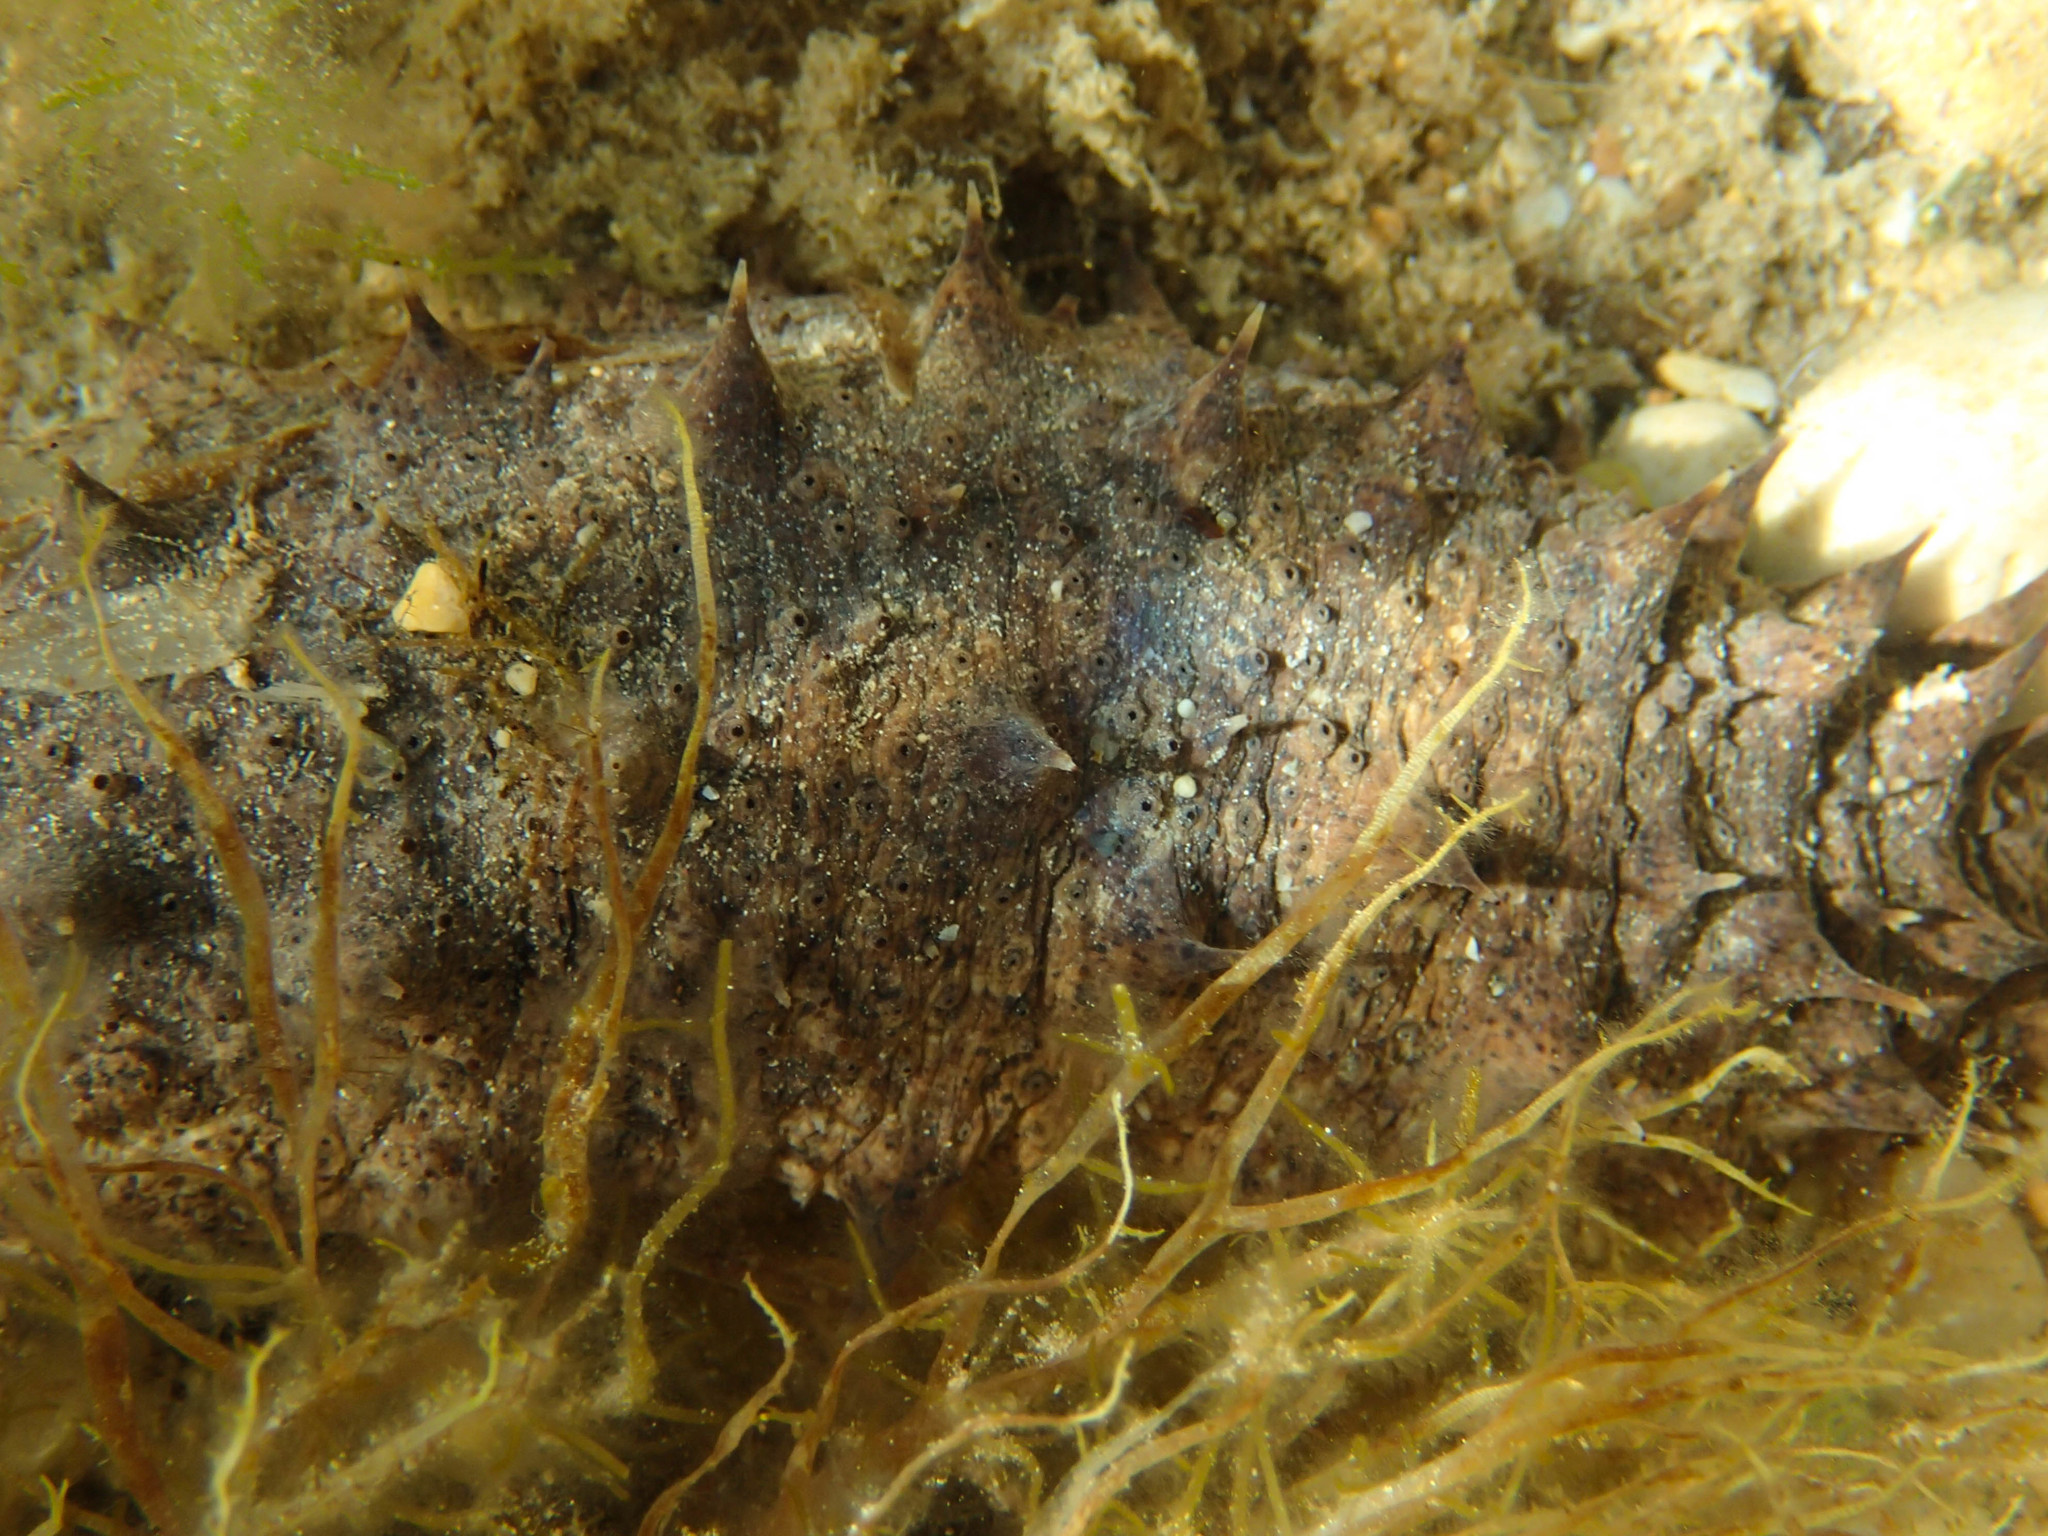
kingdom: Animalia
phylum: Echinodermata
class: Holothuroidea
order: Holothuriida
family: Holothuriidae
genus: Holothuria
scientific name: Holothuria tubulosa
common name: Cotton-spinner
